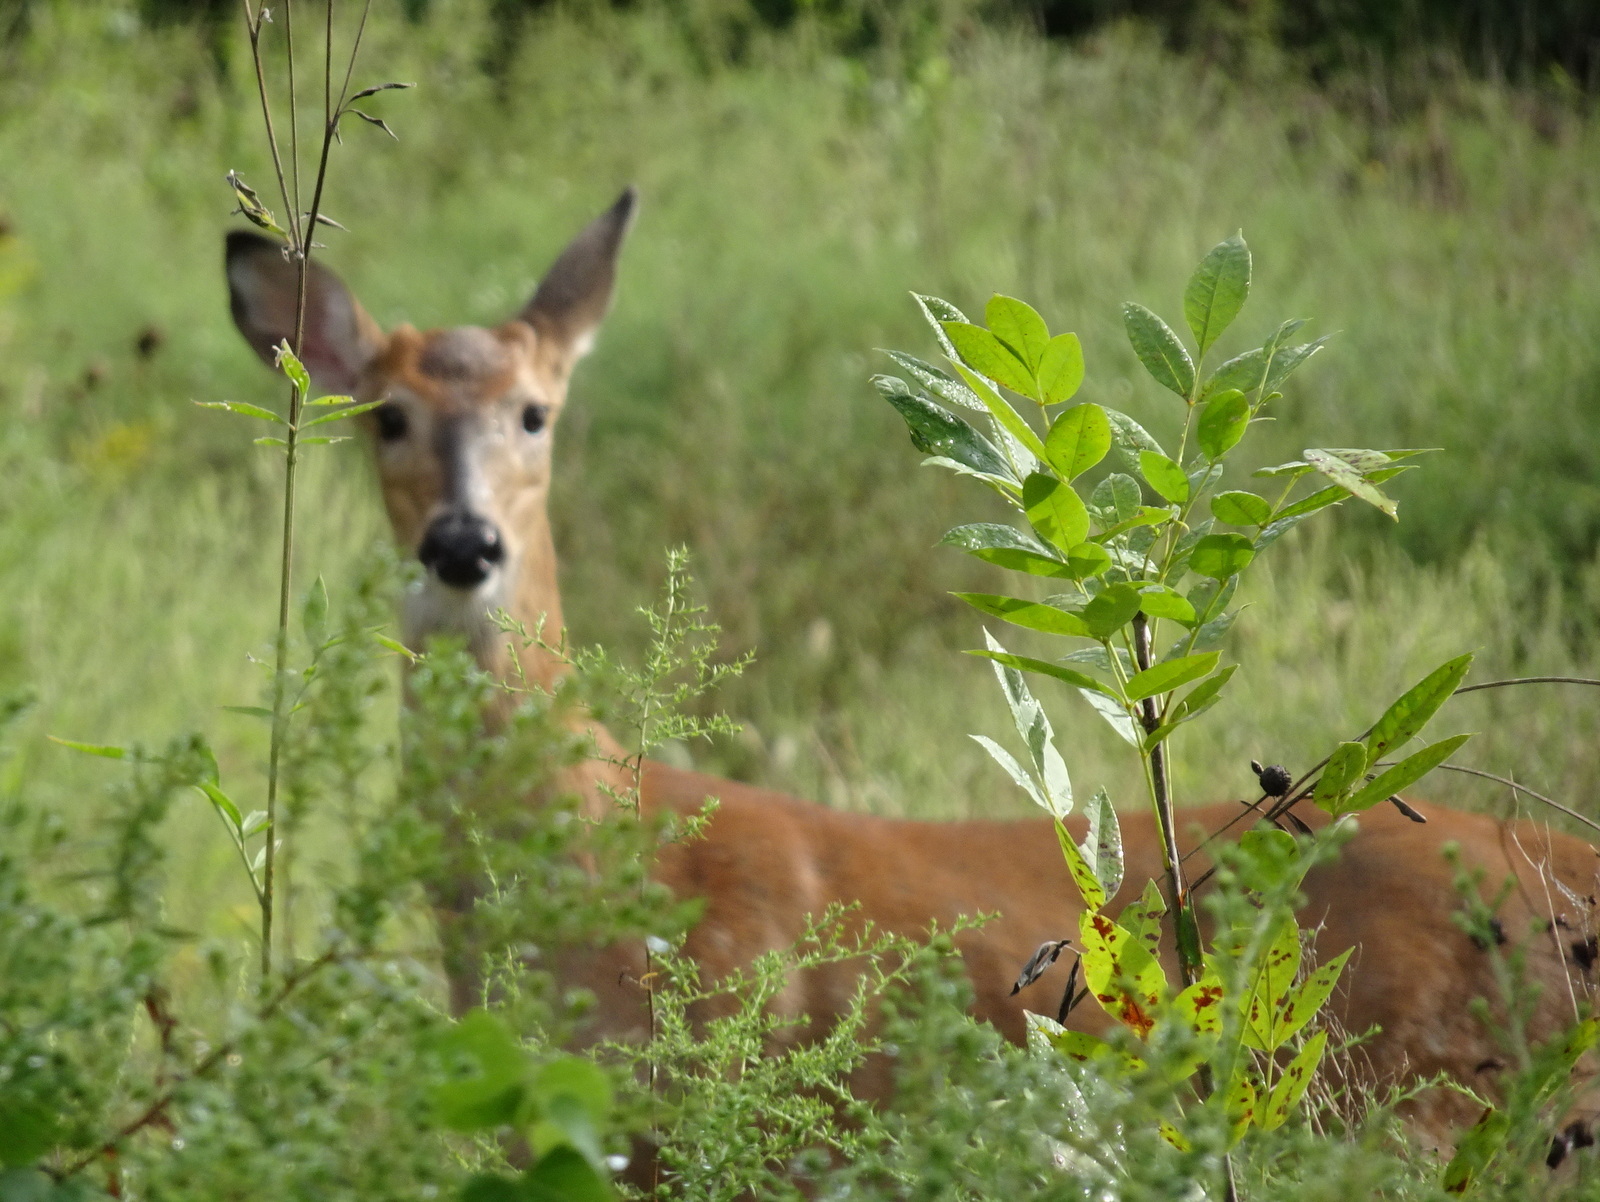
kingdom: Animalia
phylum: Chordata
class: Mammalia
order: Artiodactyla
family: Cervidae
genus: Odocoileus
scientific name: Odocoileus virginianus
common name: White-tailed deer
